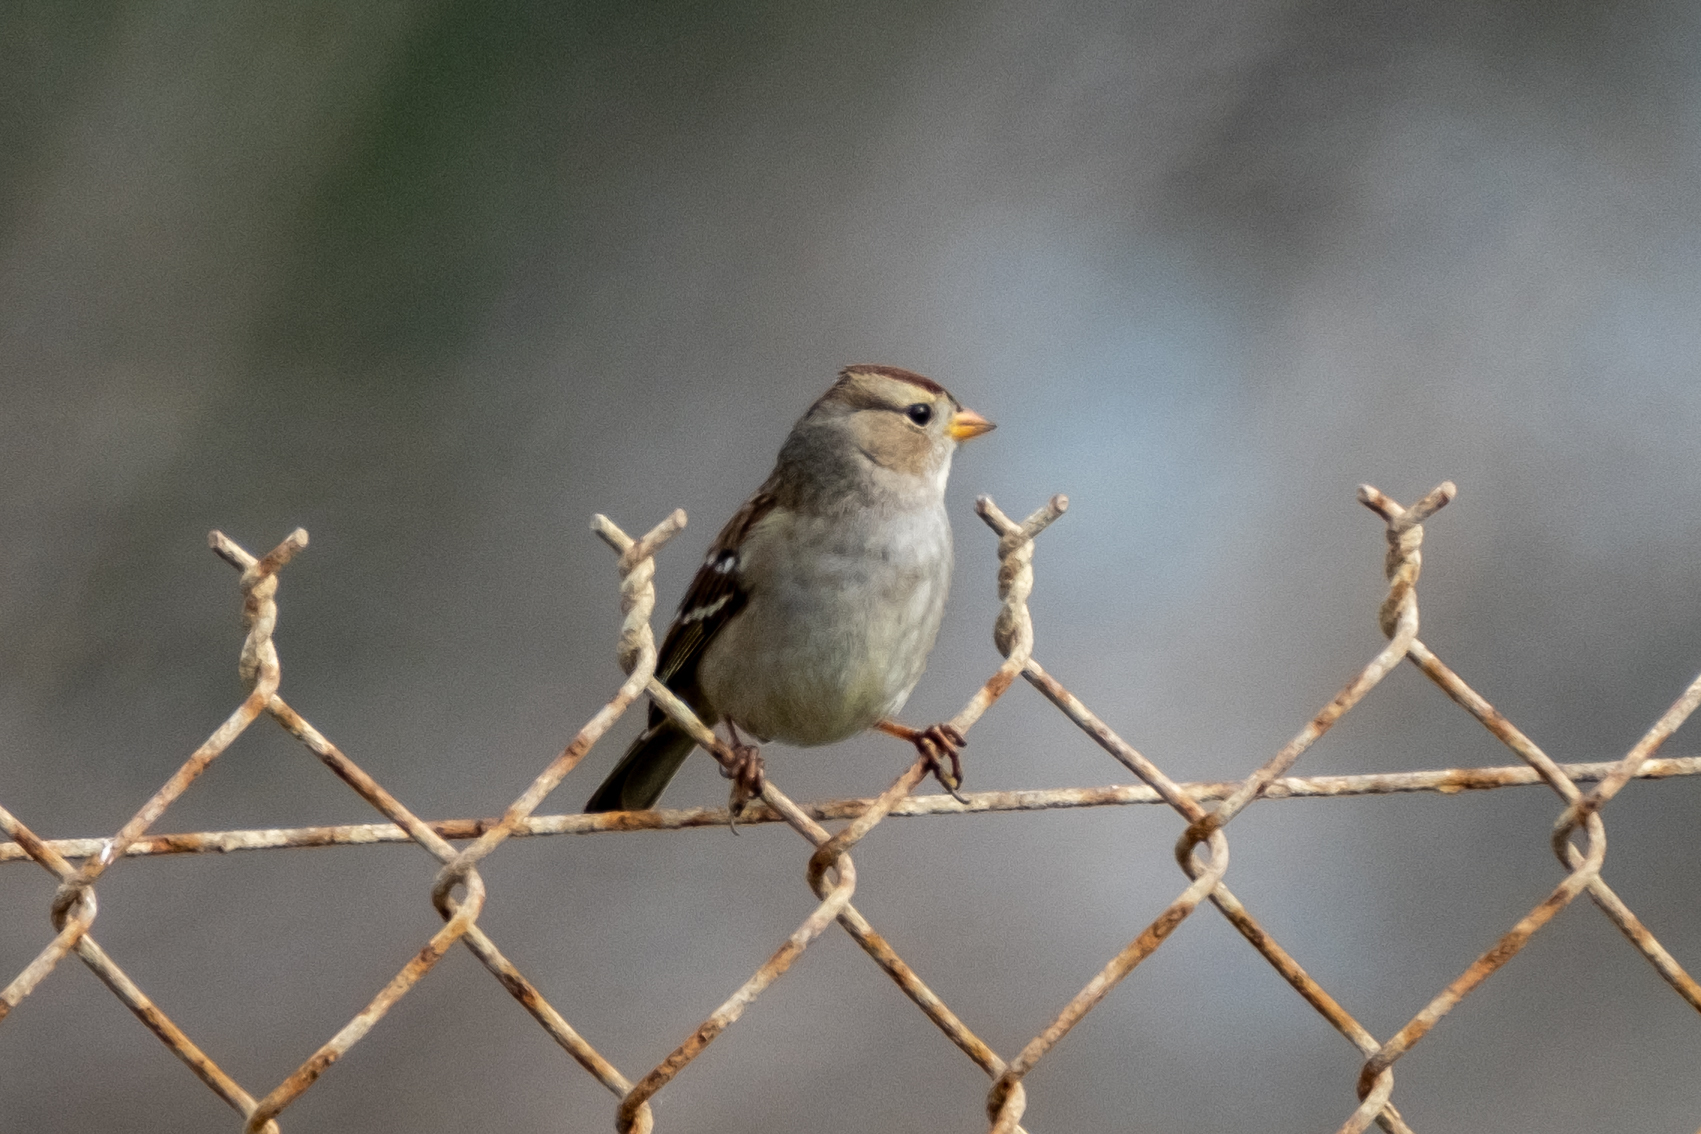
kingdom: Animalia
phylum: Chordata
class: Aves
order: Passeriformes
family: Passerellidae
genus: Zonotrichia
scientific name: Zonotrichia leucophrys
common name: White-crowned sparrow
